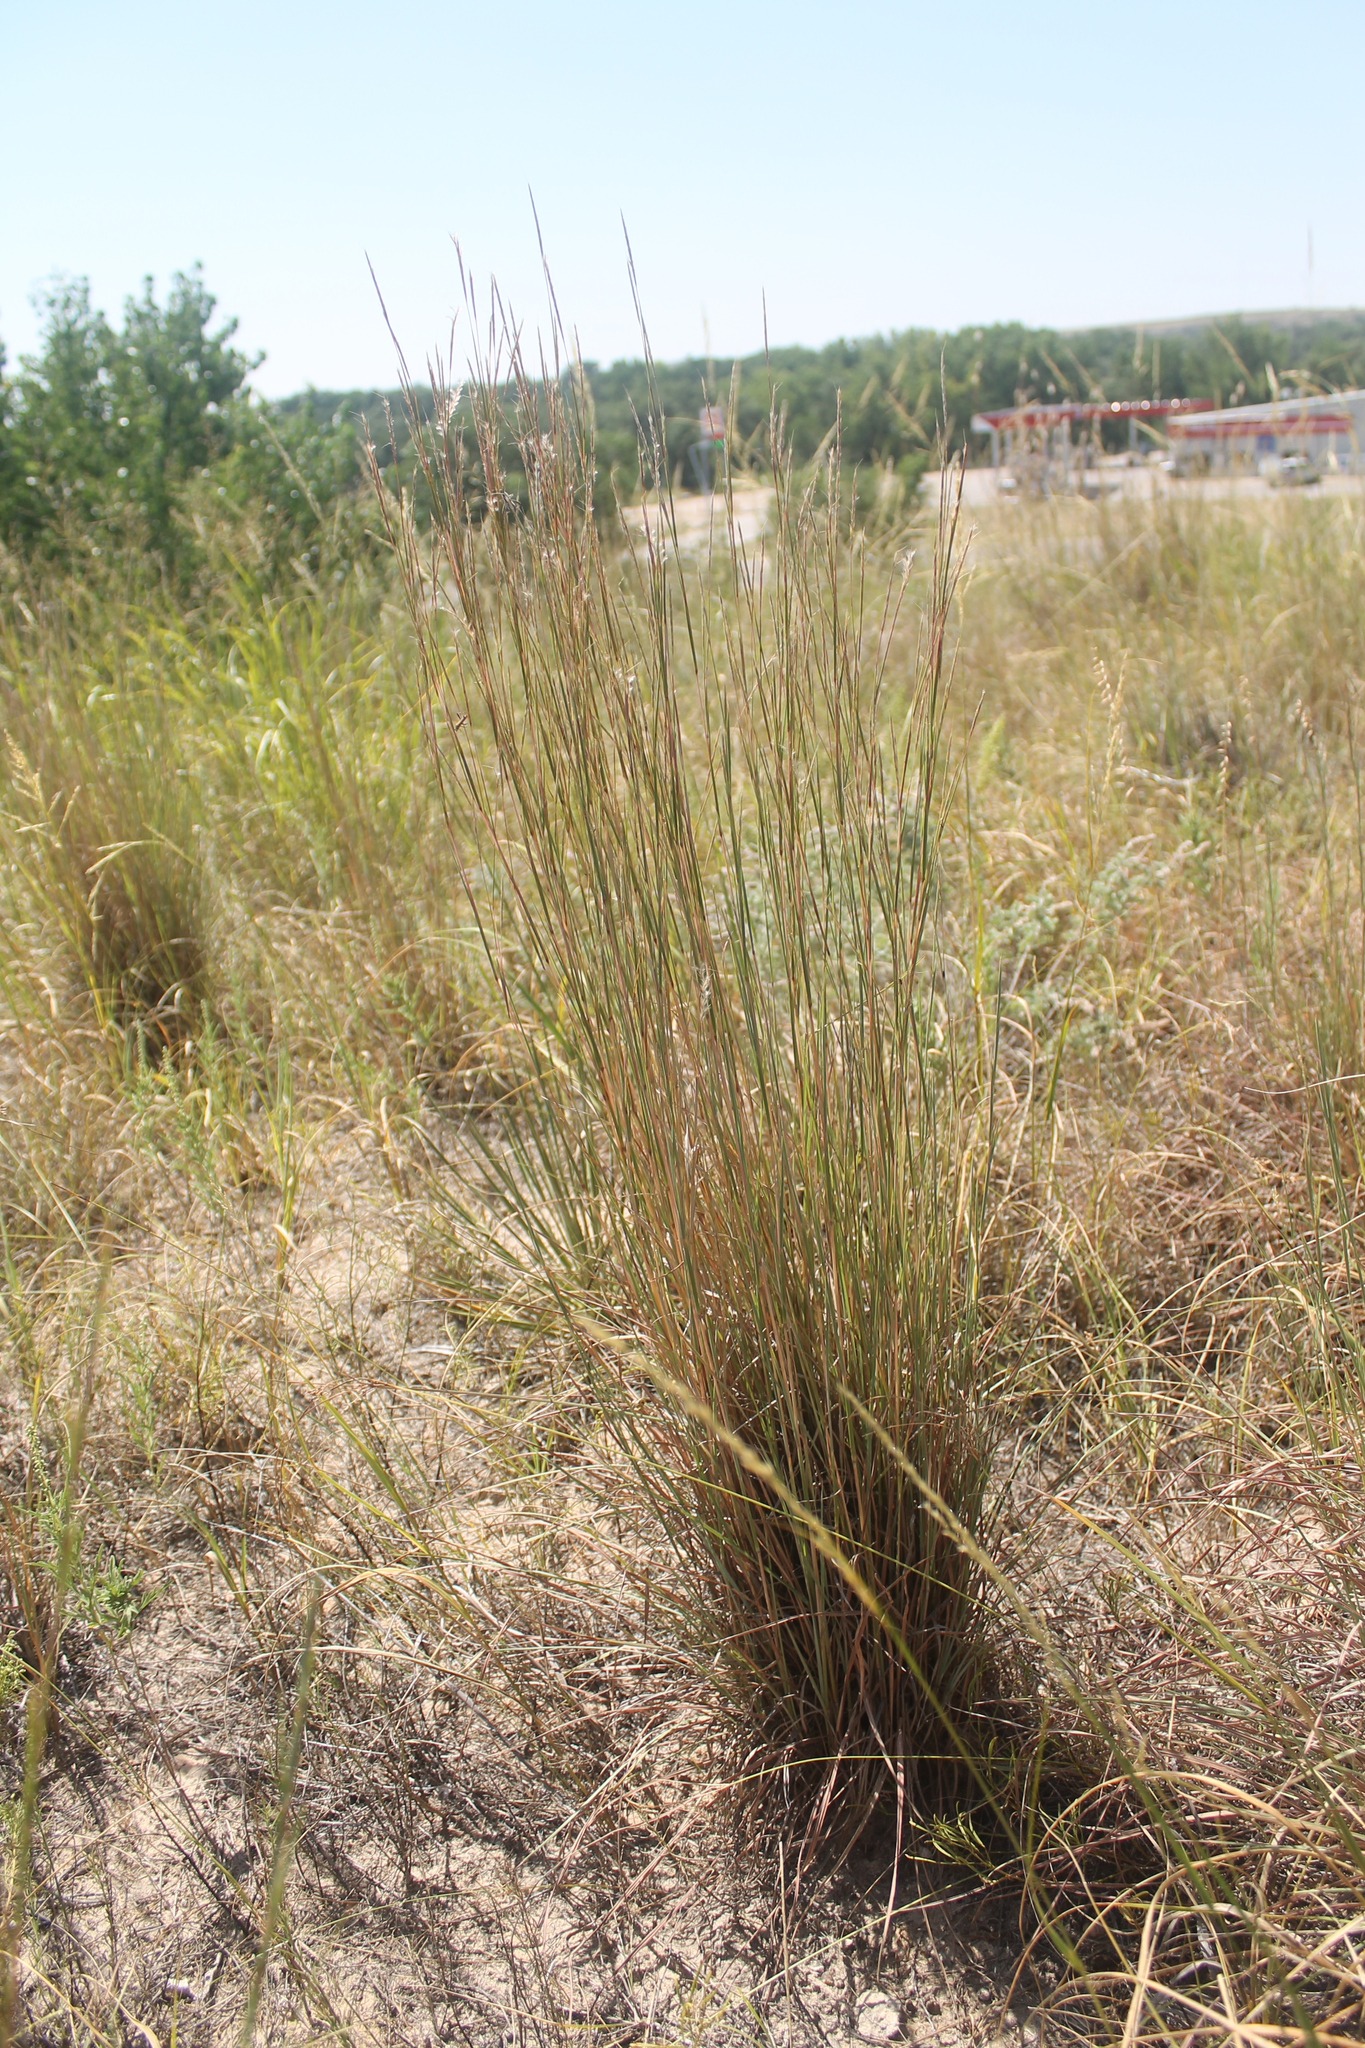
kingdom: Plantae
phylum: Tracheophyta
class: Liliopsida
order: Poales
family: Poaceae
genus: Schizachyrium
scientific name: Schizachyrium scoparium
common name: Little bluestem
